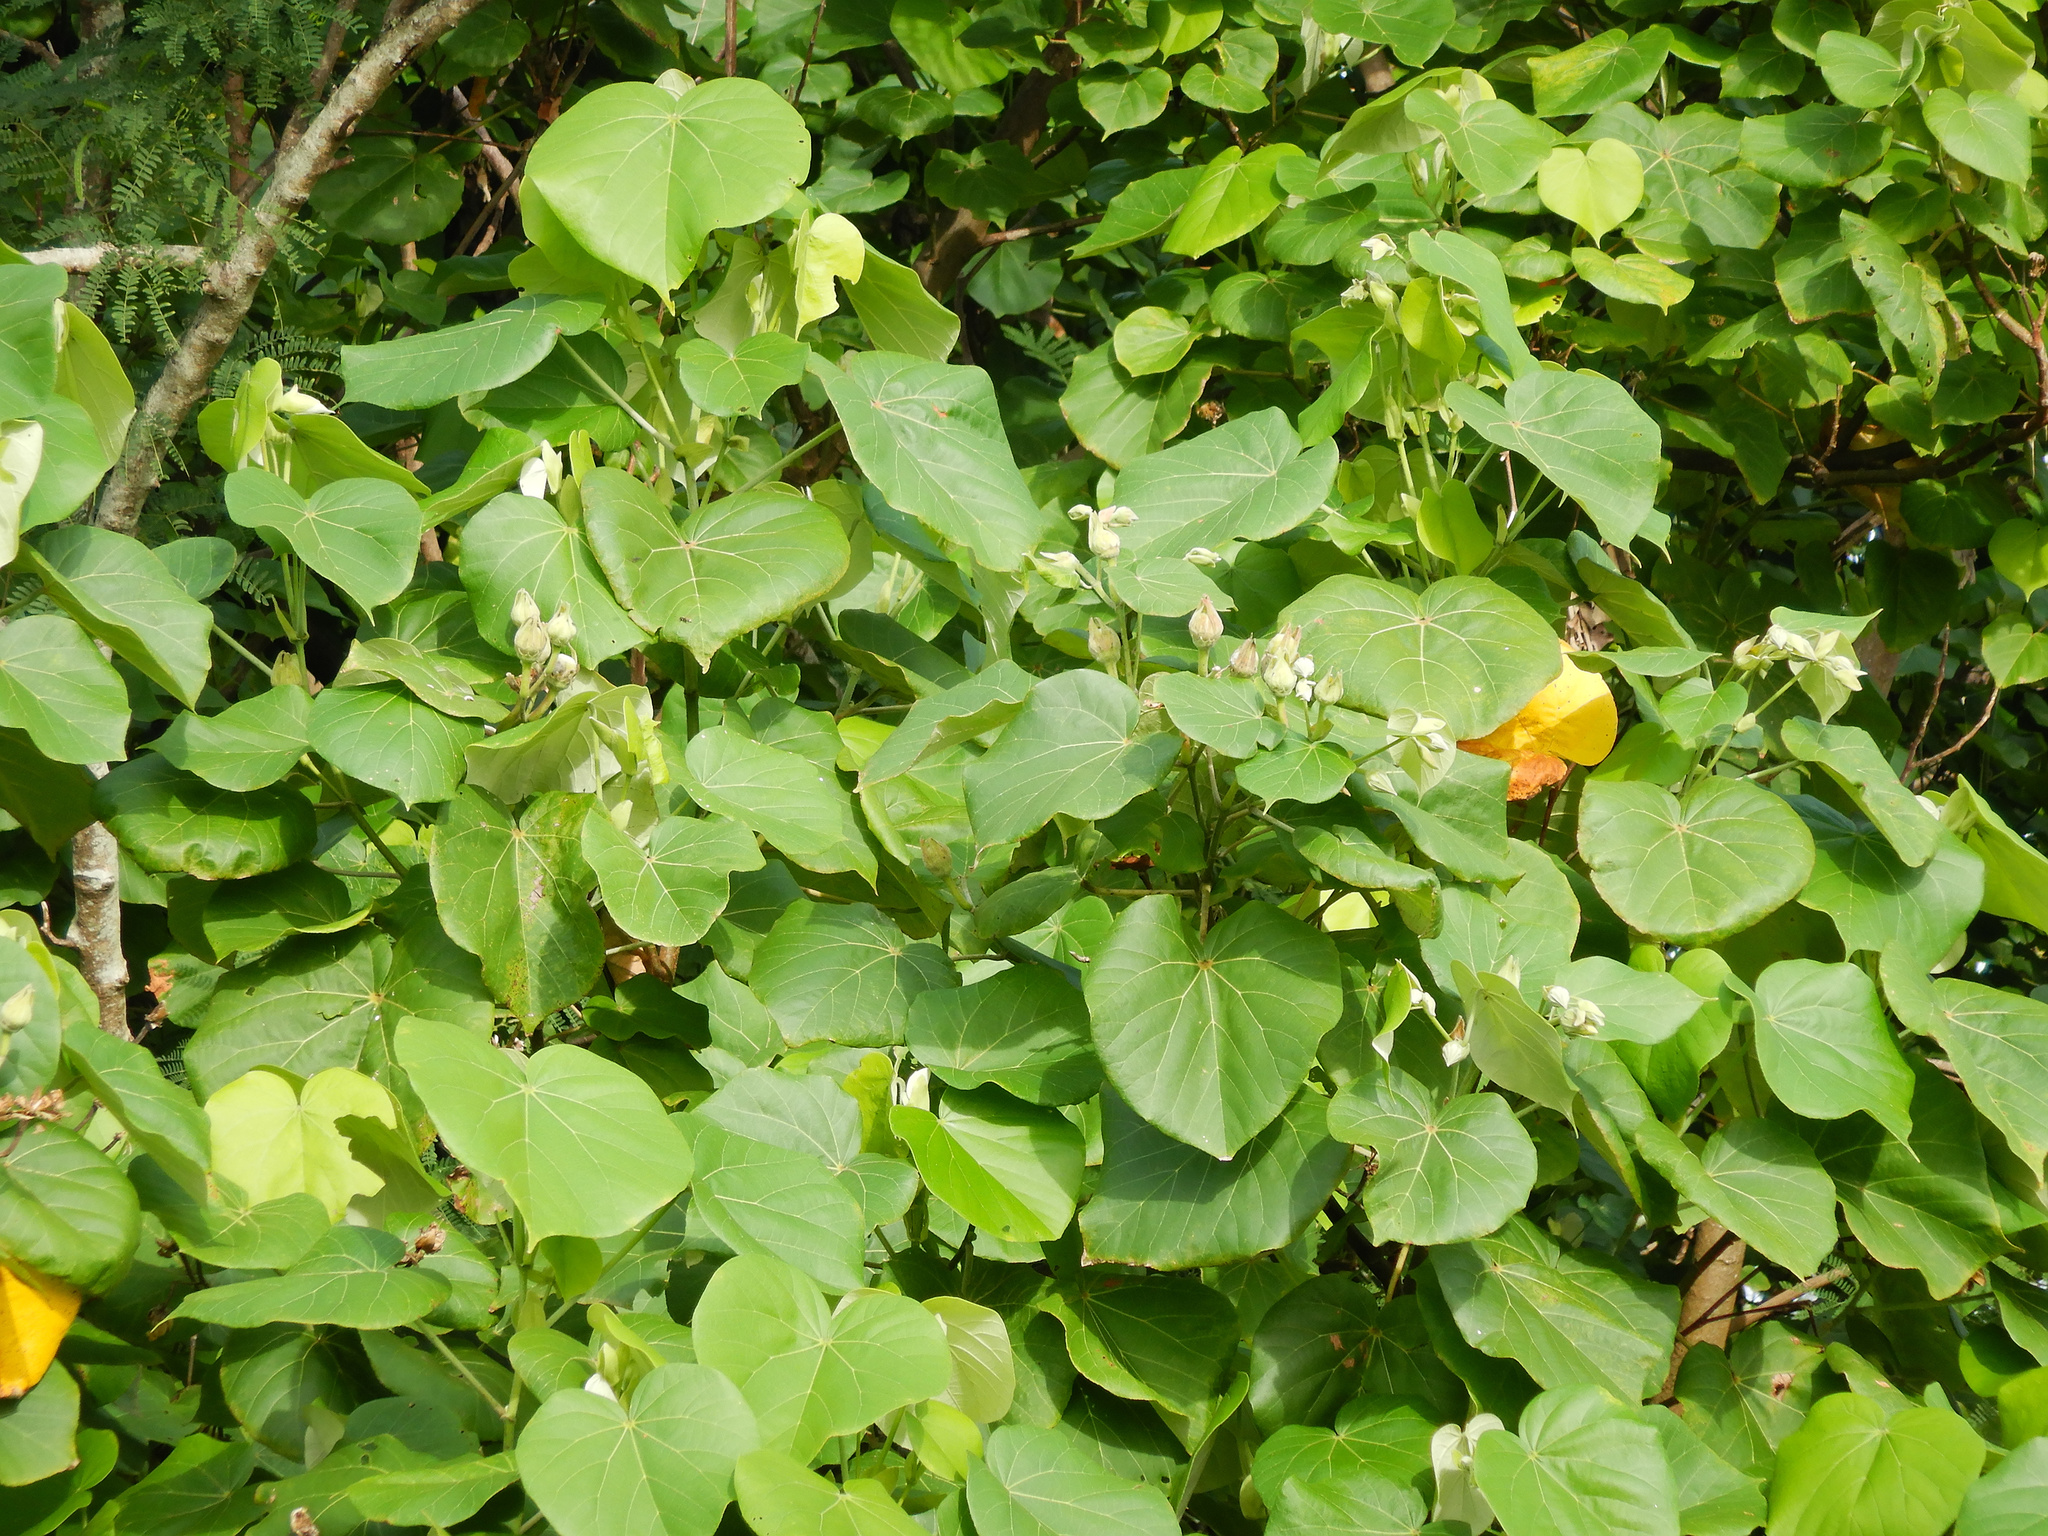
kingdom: Plantae
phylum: Tracheophyta
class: Magnoliopsida
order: Malvales
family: Malvaceae
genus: Talipariti
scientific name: Talipariti tiliaceum
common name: Sea hibiscus
